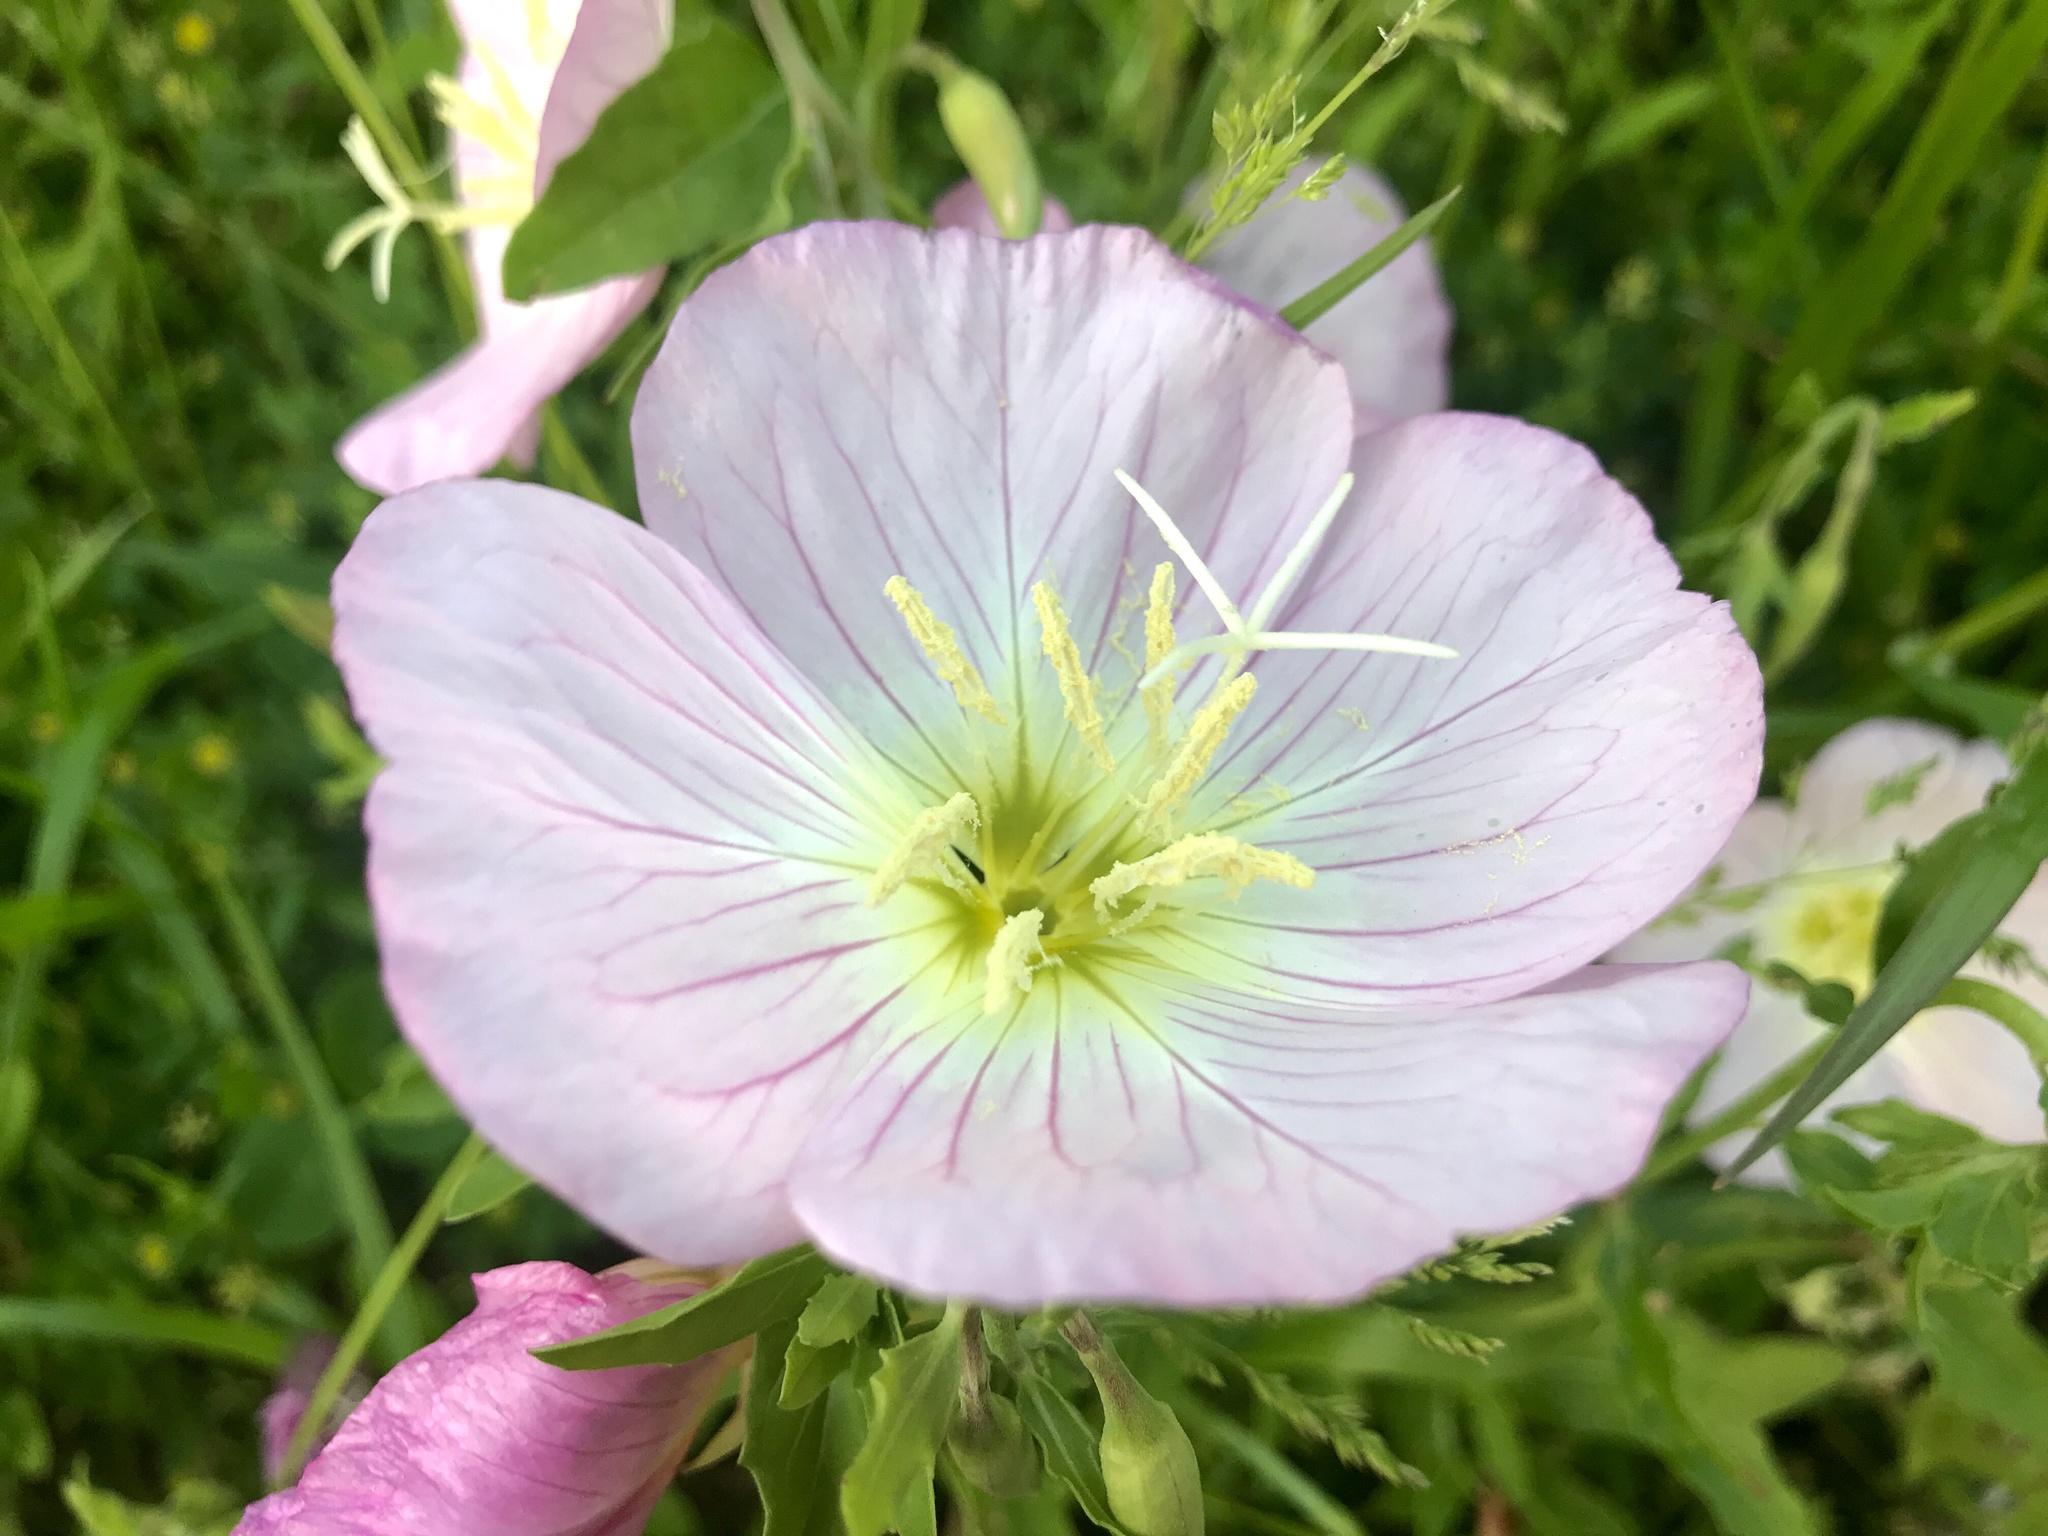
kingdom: Plantae
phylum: Tracheophyta
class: Magnoliopsida
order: Myrtales
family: Onagraceae
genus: Oenothera
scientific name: Oenothera speciosa
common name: White evening-primrose
